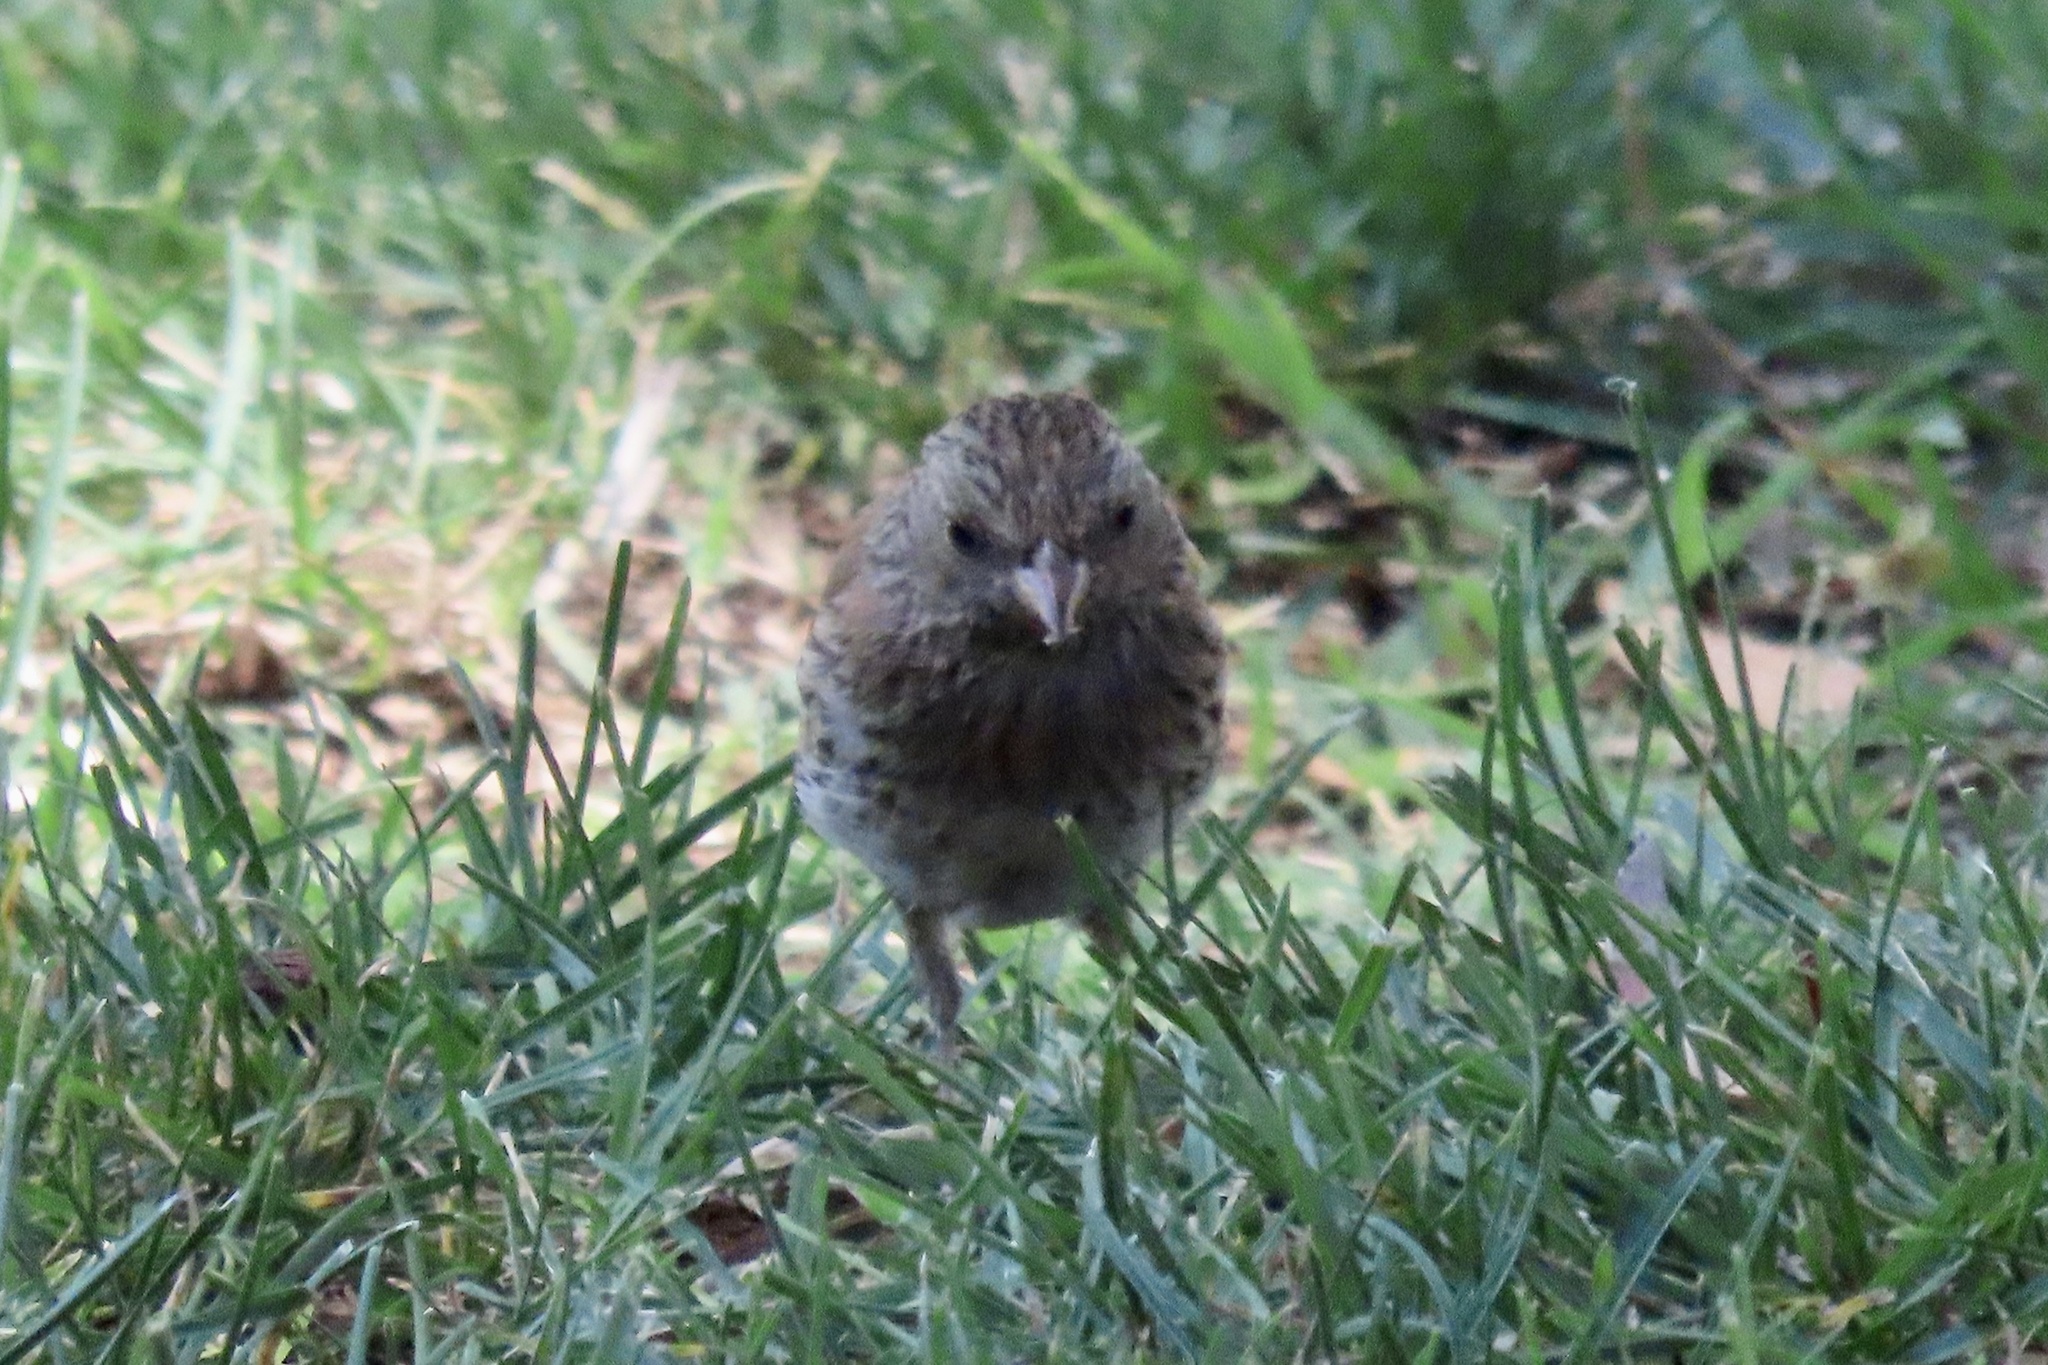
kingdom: Animalia
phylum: Chordata
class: Aves
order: Passeriformes
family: Passerellidae
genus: Junco
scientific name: Junco hyemalis
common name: Dark-eyed junco
